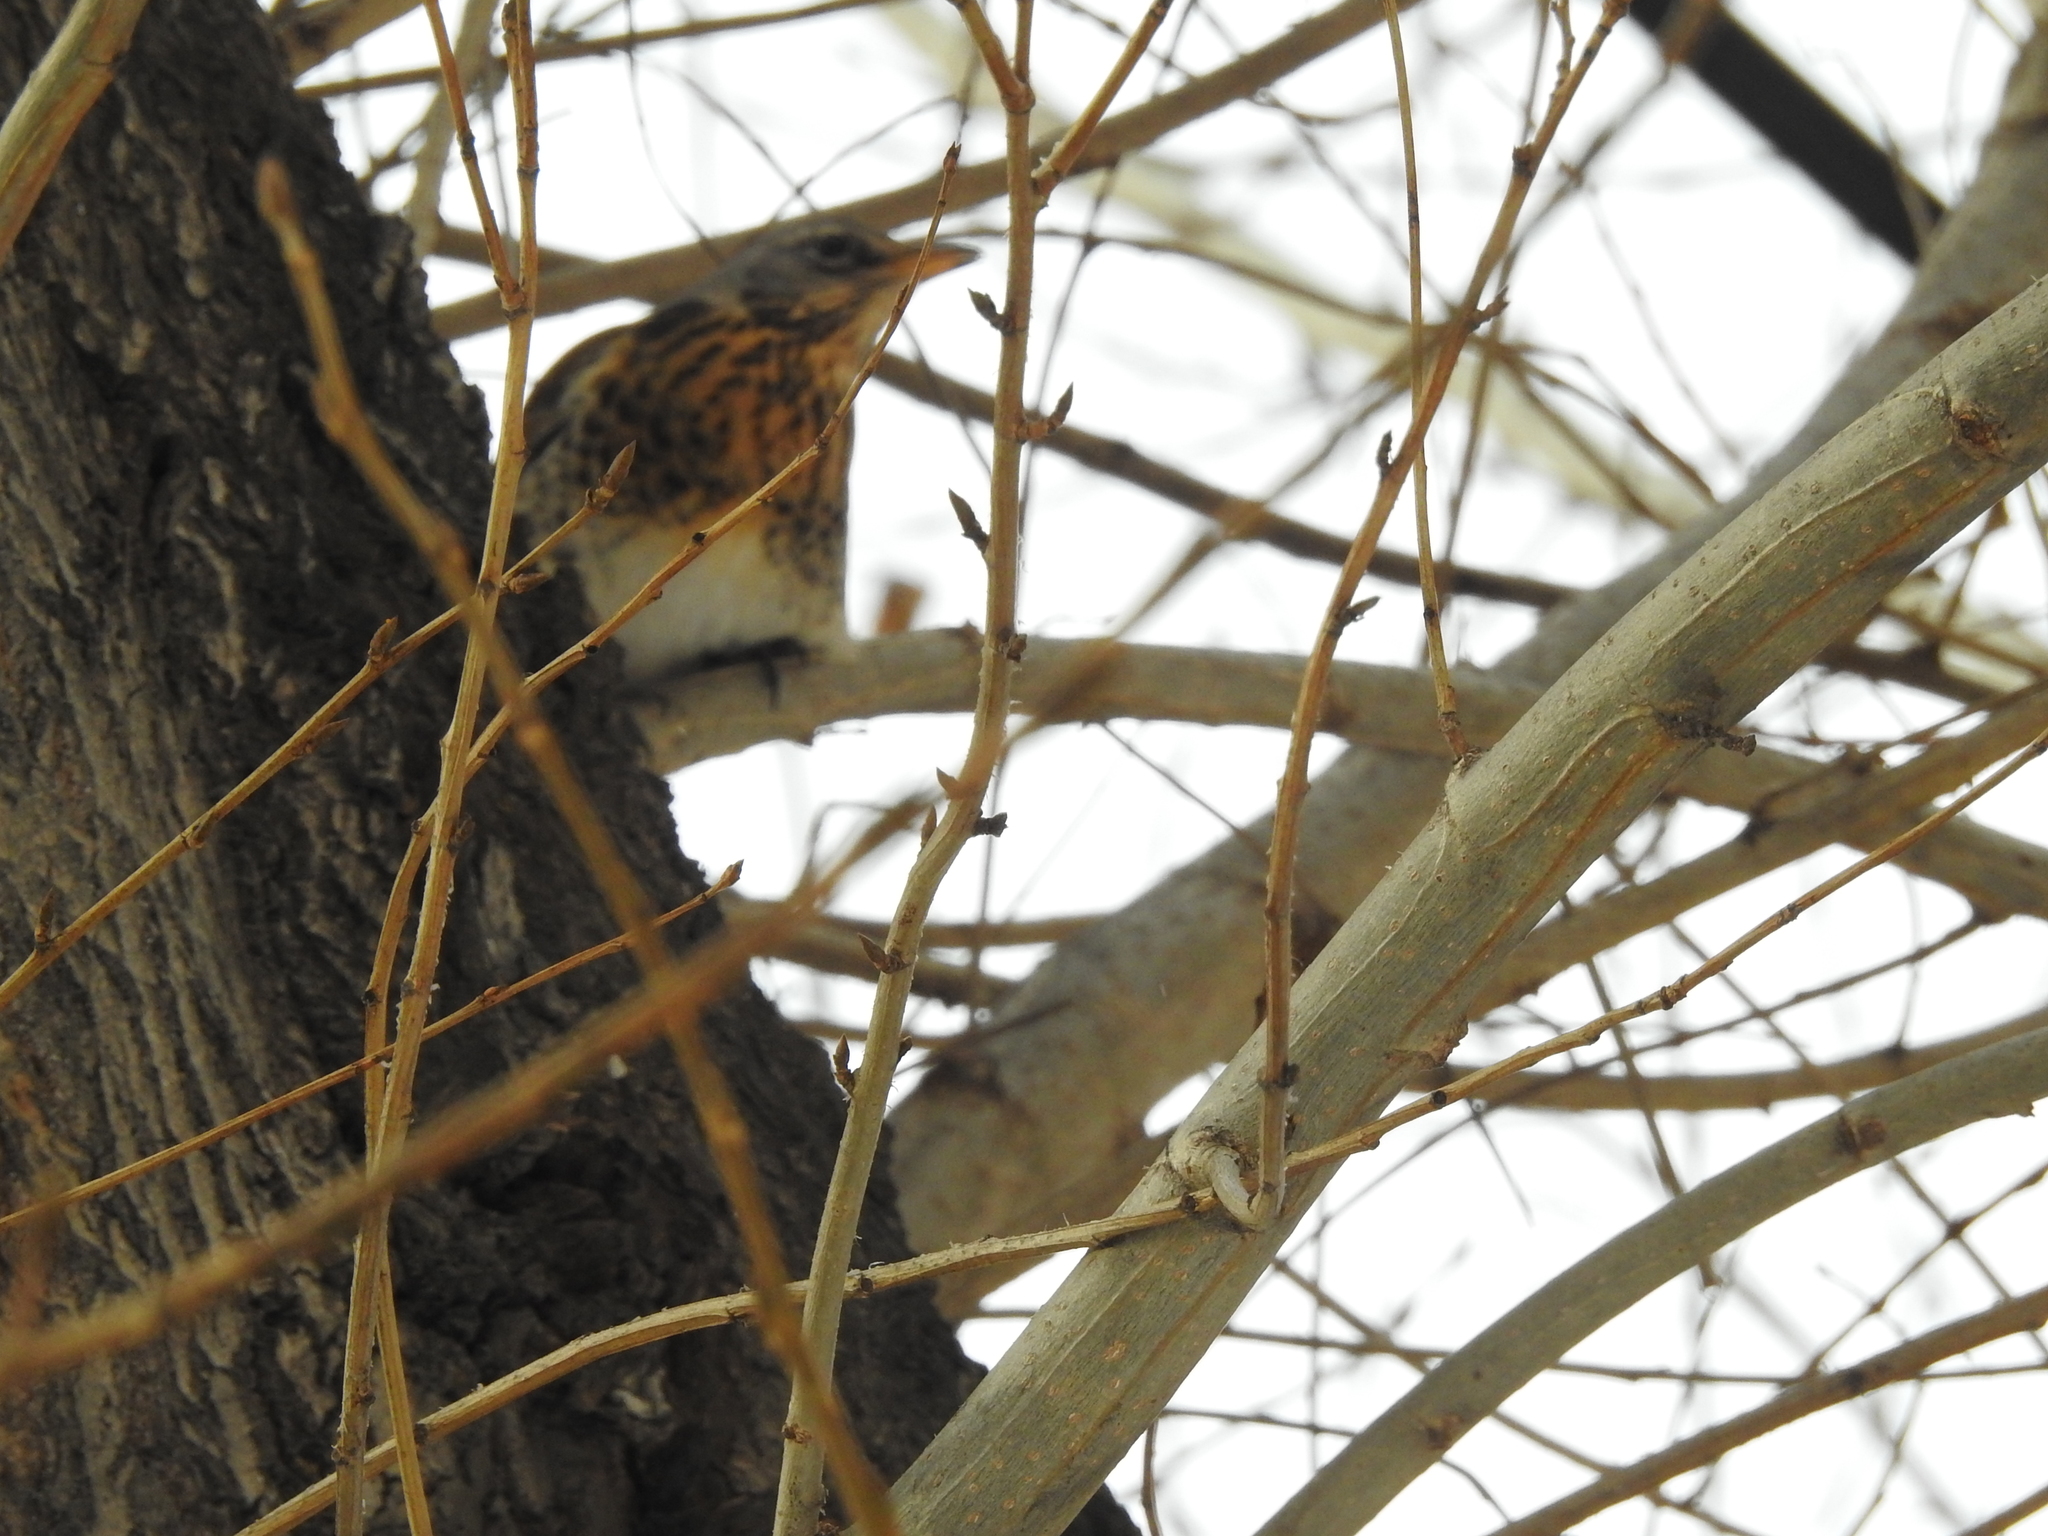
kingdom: Animalia
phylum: Chordata
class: Aves
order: Passeriformes
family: Turdidae
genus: Turdus
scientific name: Turdus pilaris
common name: Fieldfare
